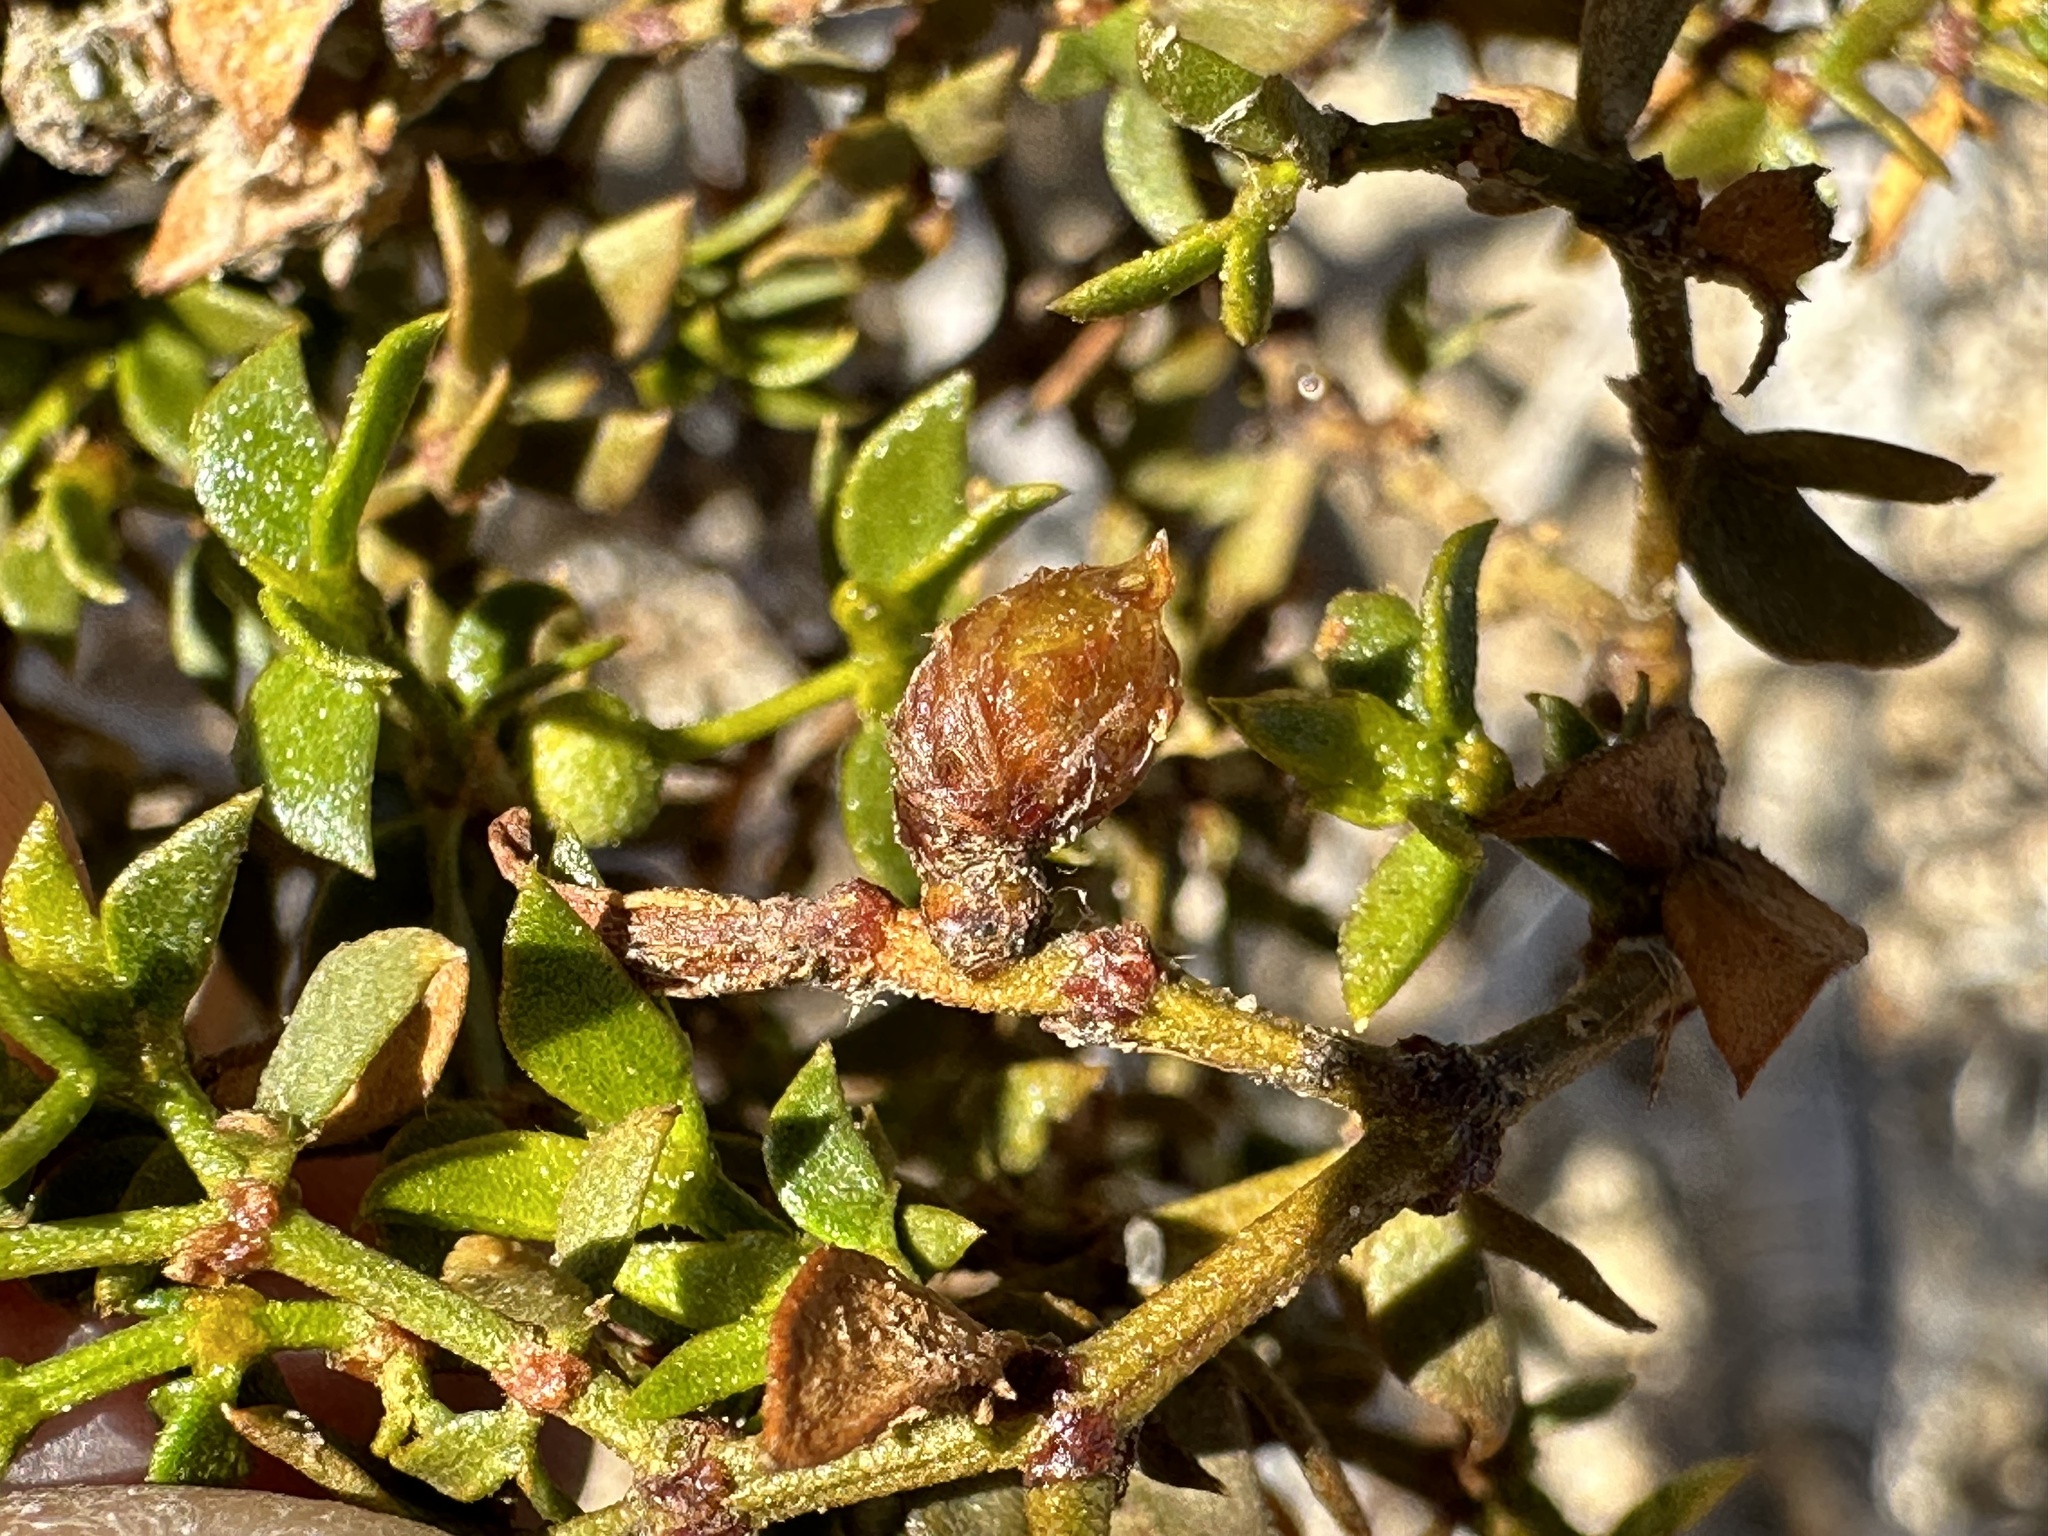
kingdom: Animalia
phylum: Arthropoda
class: Insecta
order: Diptera
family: Cecidomyiidae
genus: Asphondylia
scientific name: Asphondylia resinosa
